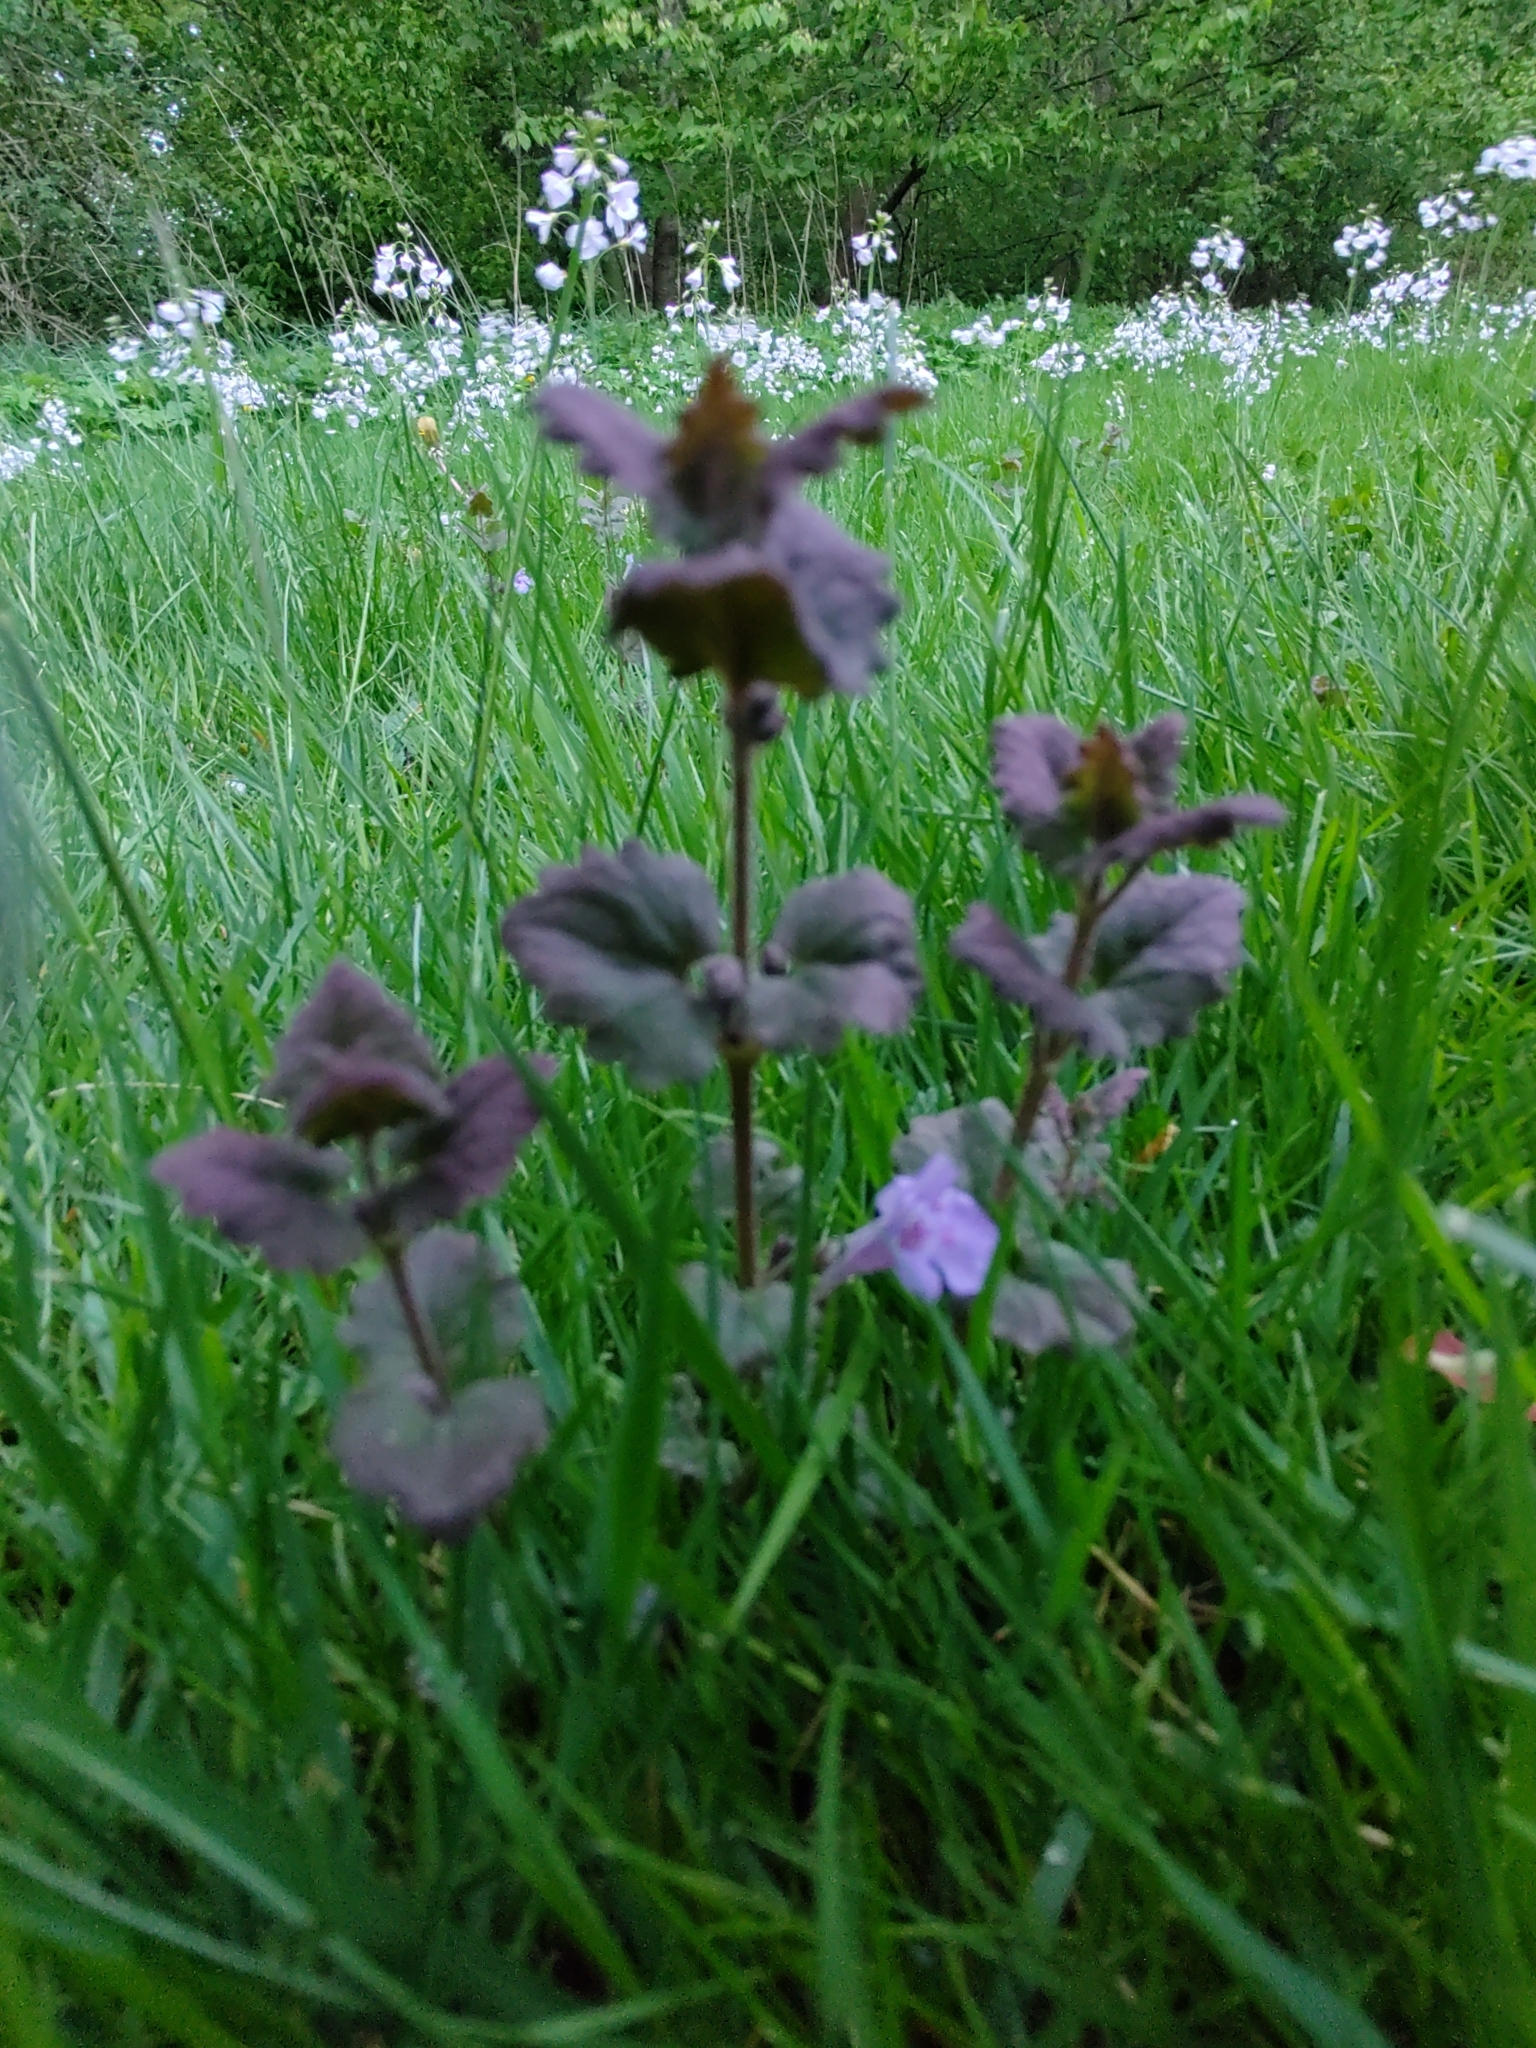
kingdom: Plantae
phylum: Tracheophyta
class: Magnoliopsida
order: Lamiales
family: Lamiaceae
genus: Glechoma
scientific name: Glechoma hederacea
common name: Ground ivy
